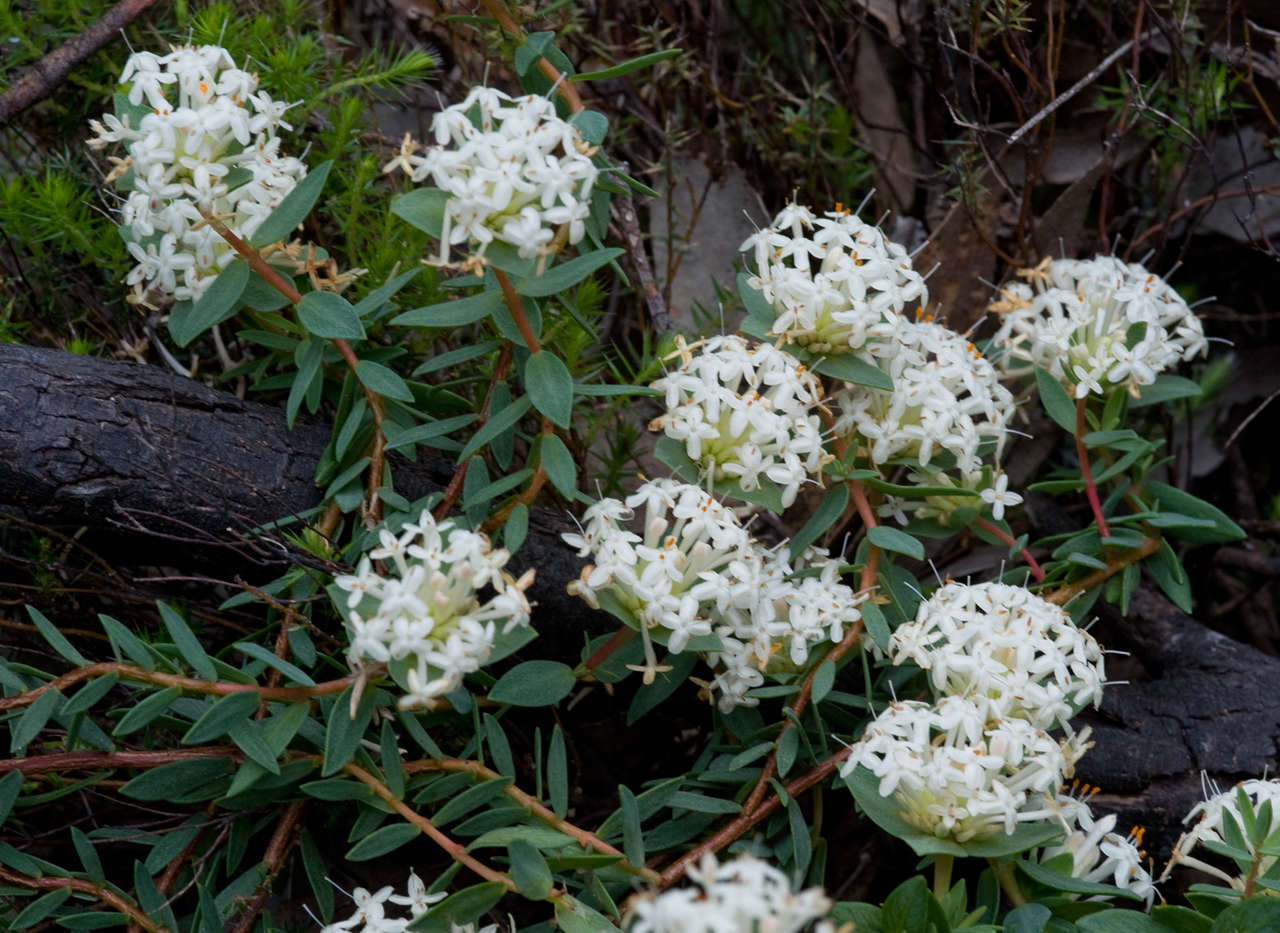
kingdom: Plantae
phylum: Tracheophyta
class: Magnoliopsida
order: Malvales
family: Thymelaeaceae
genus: Pimelea
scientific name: Pimelea linifolia
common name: Queen-of-the-bush
